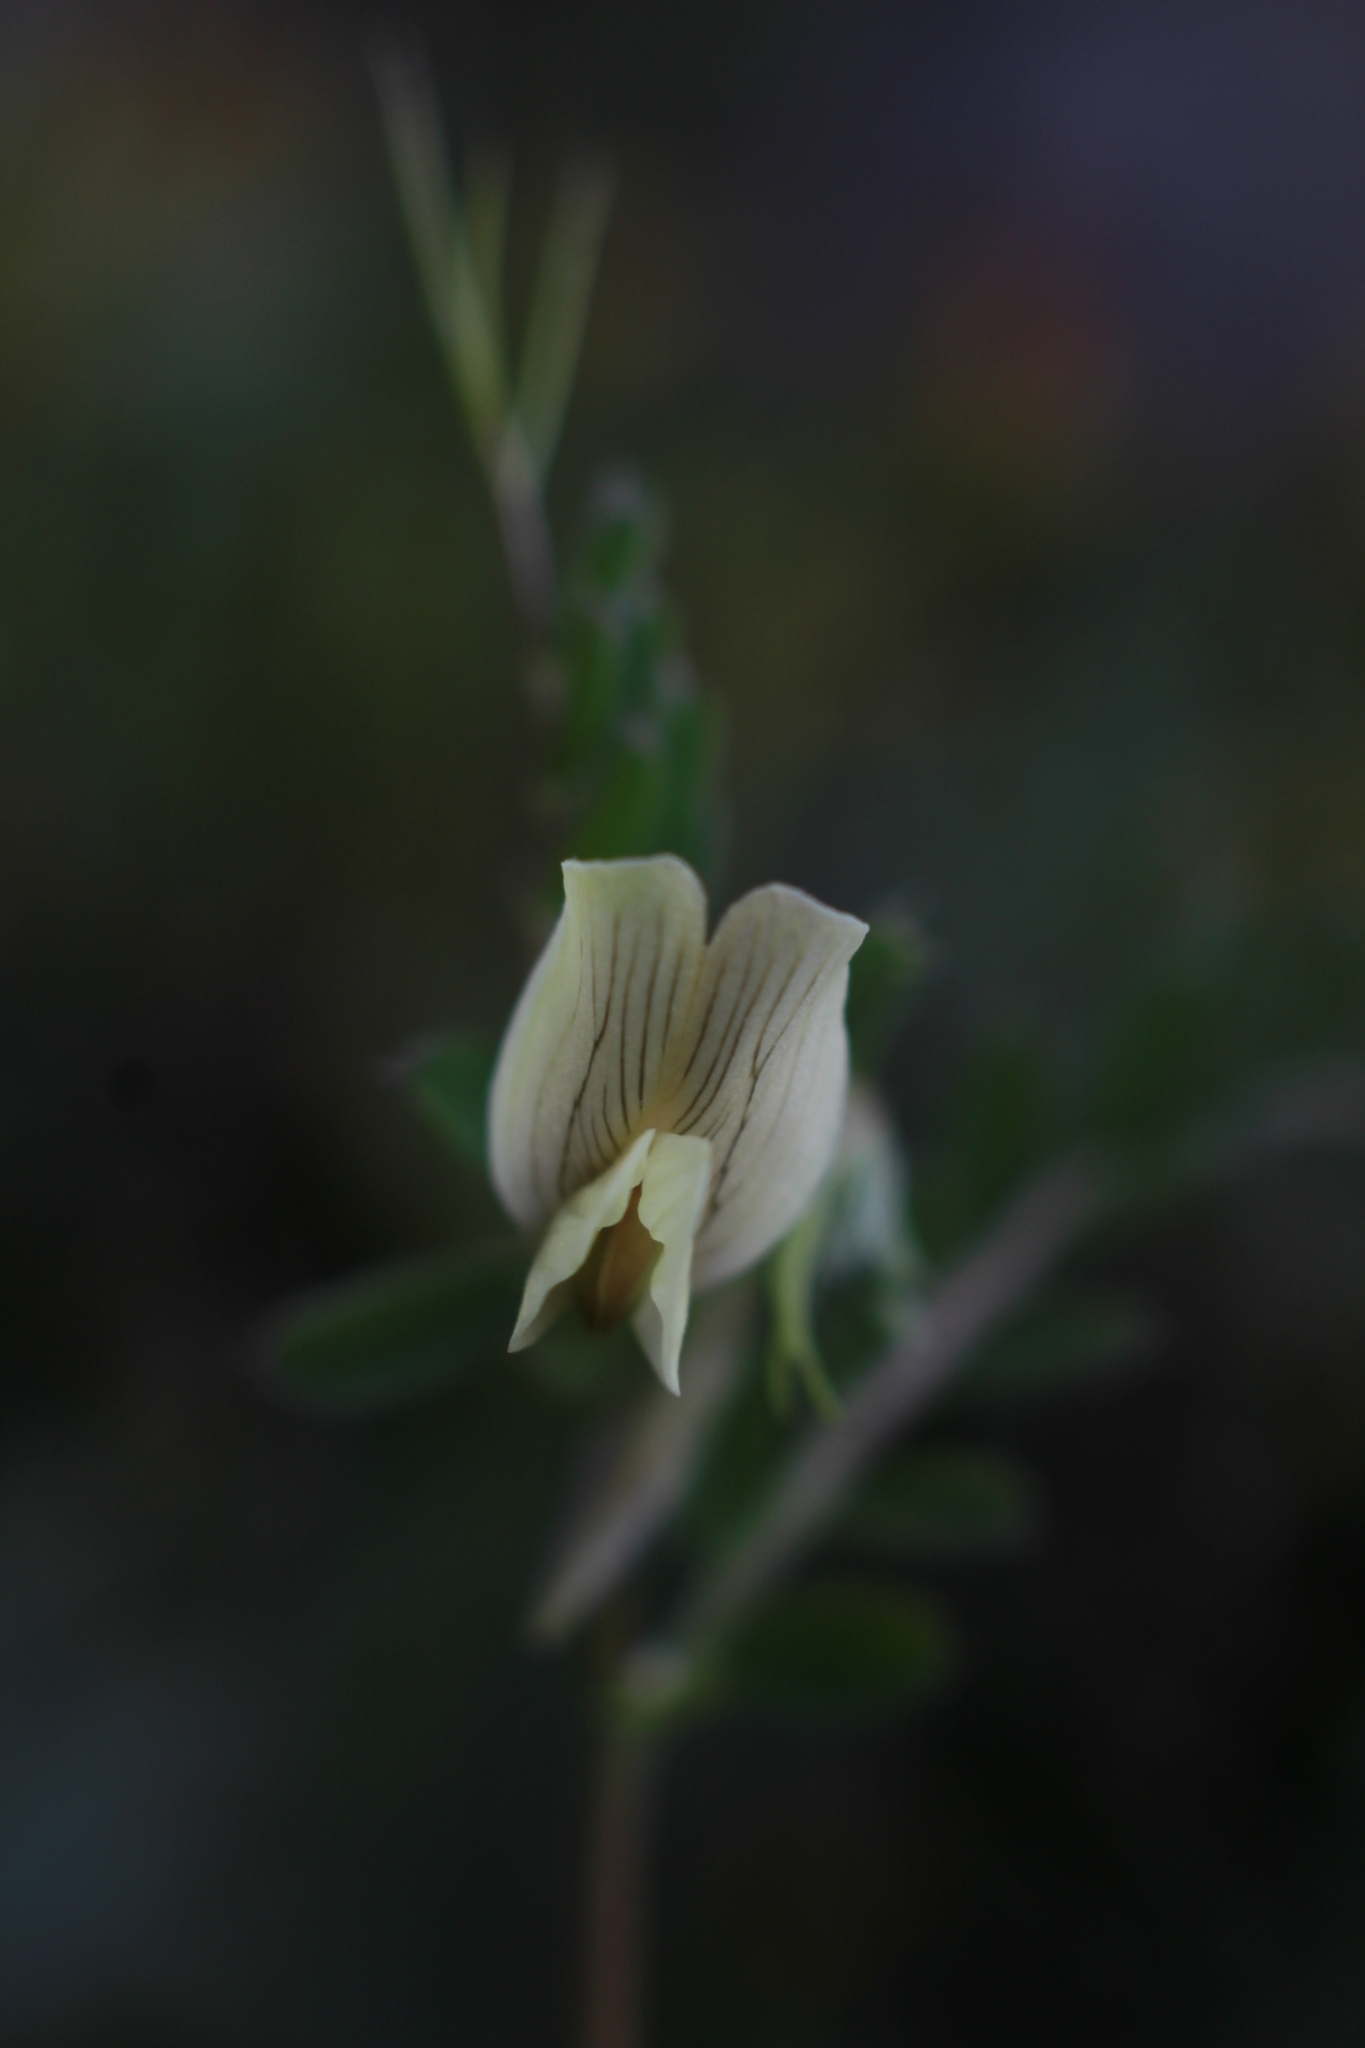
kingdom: Plantae
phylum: Tracheophyta
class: Magnoliopsida
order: Fabales
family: Fabaceae
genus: Vicia
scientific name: Vicia hybrida
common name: Hairy yellow vetch
